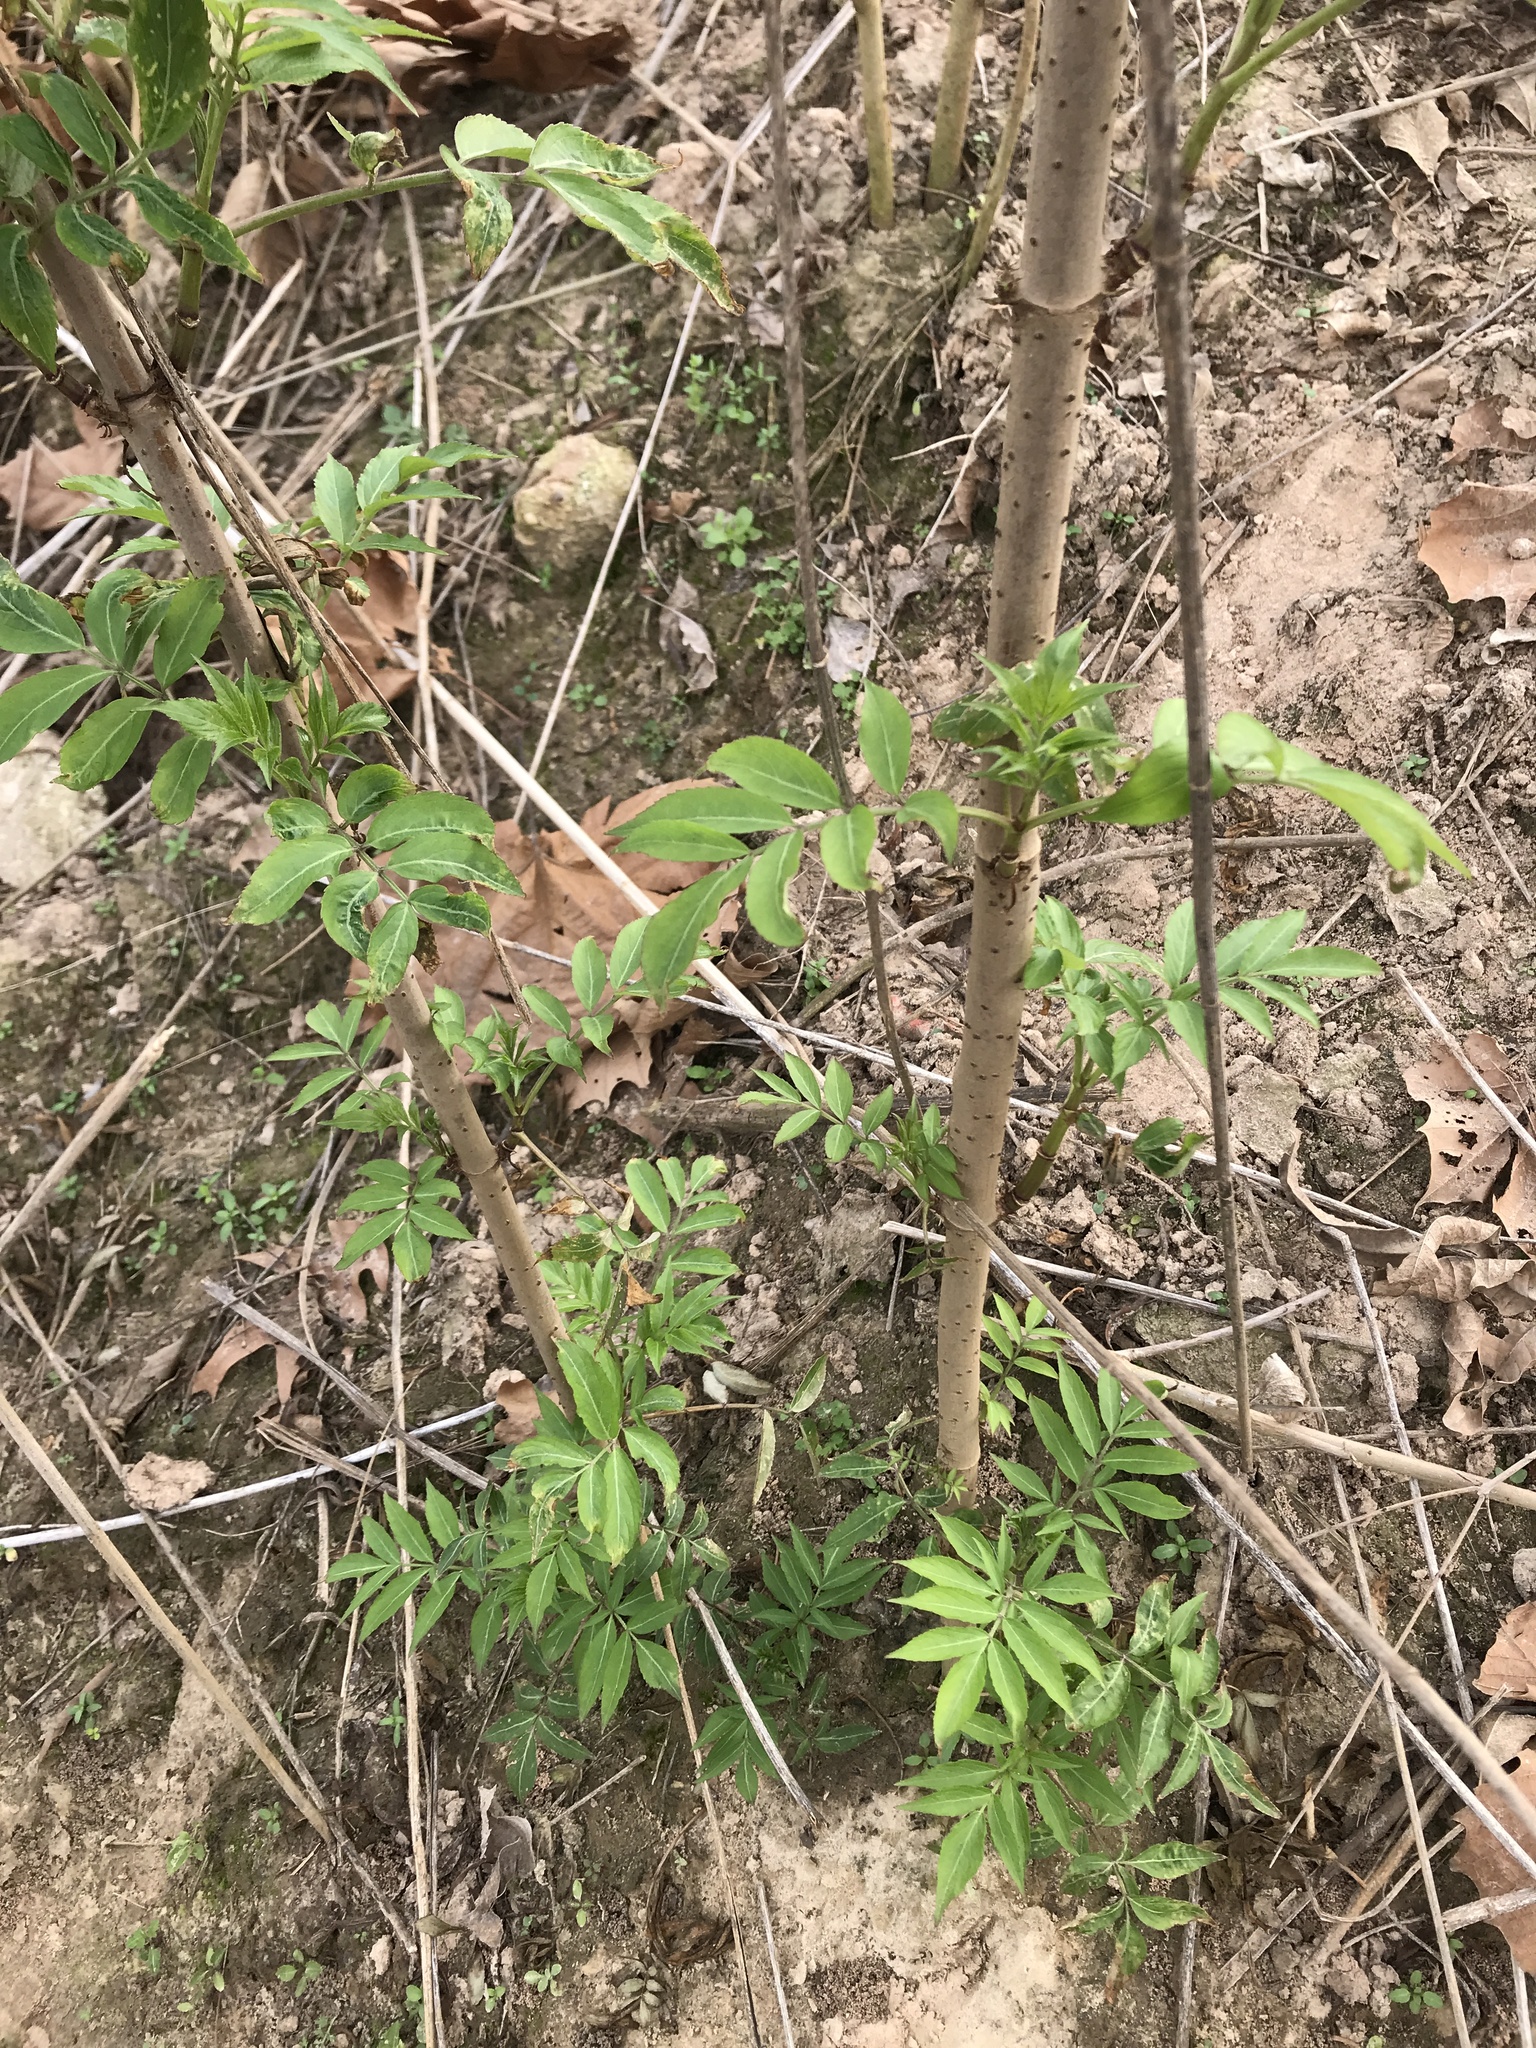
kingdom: Plantae
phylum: Tracheophyta
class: Magnoliopsida
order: Dipsacales
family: Viburnaceae
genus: Sambucus
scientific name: Sambucus canadensis
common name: American elder
